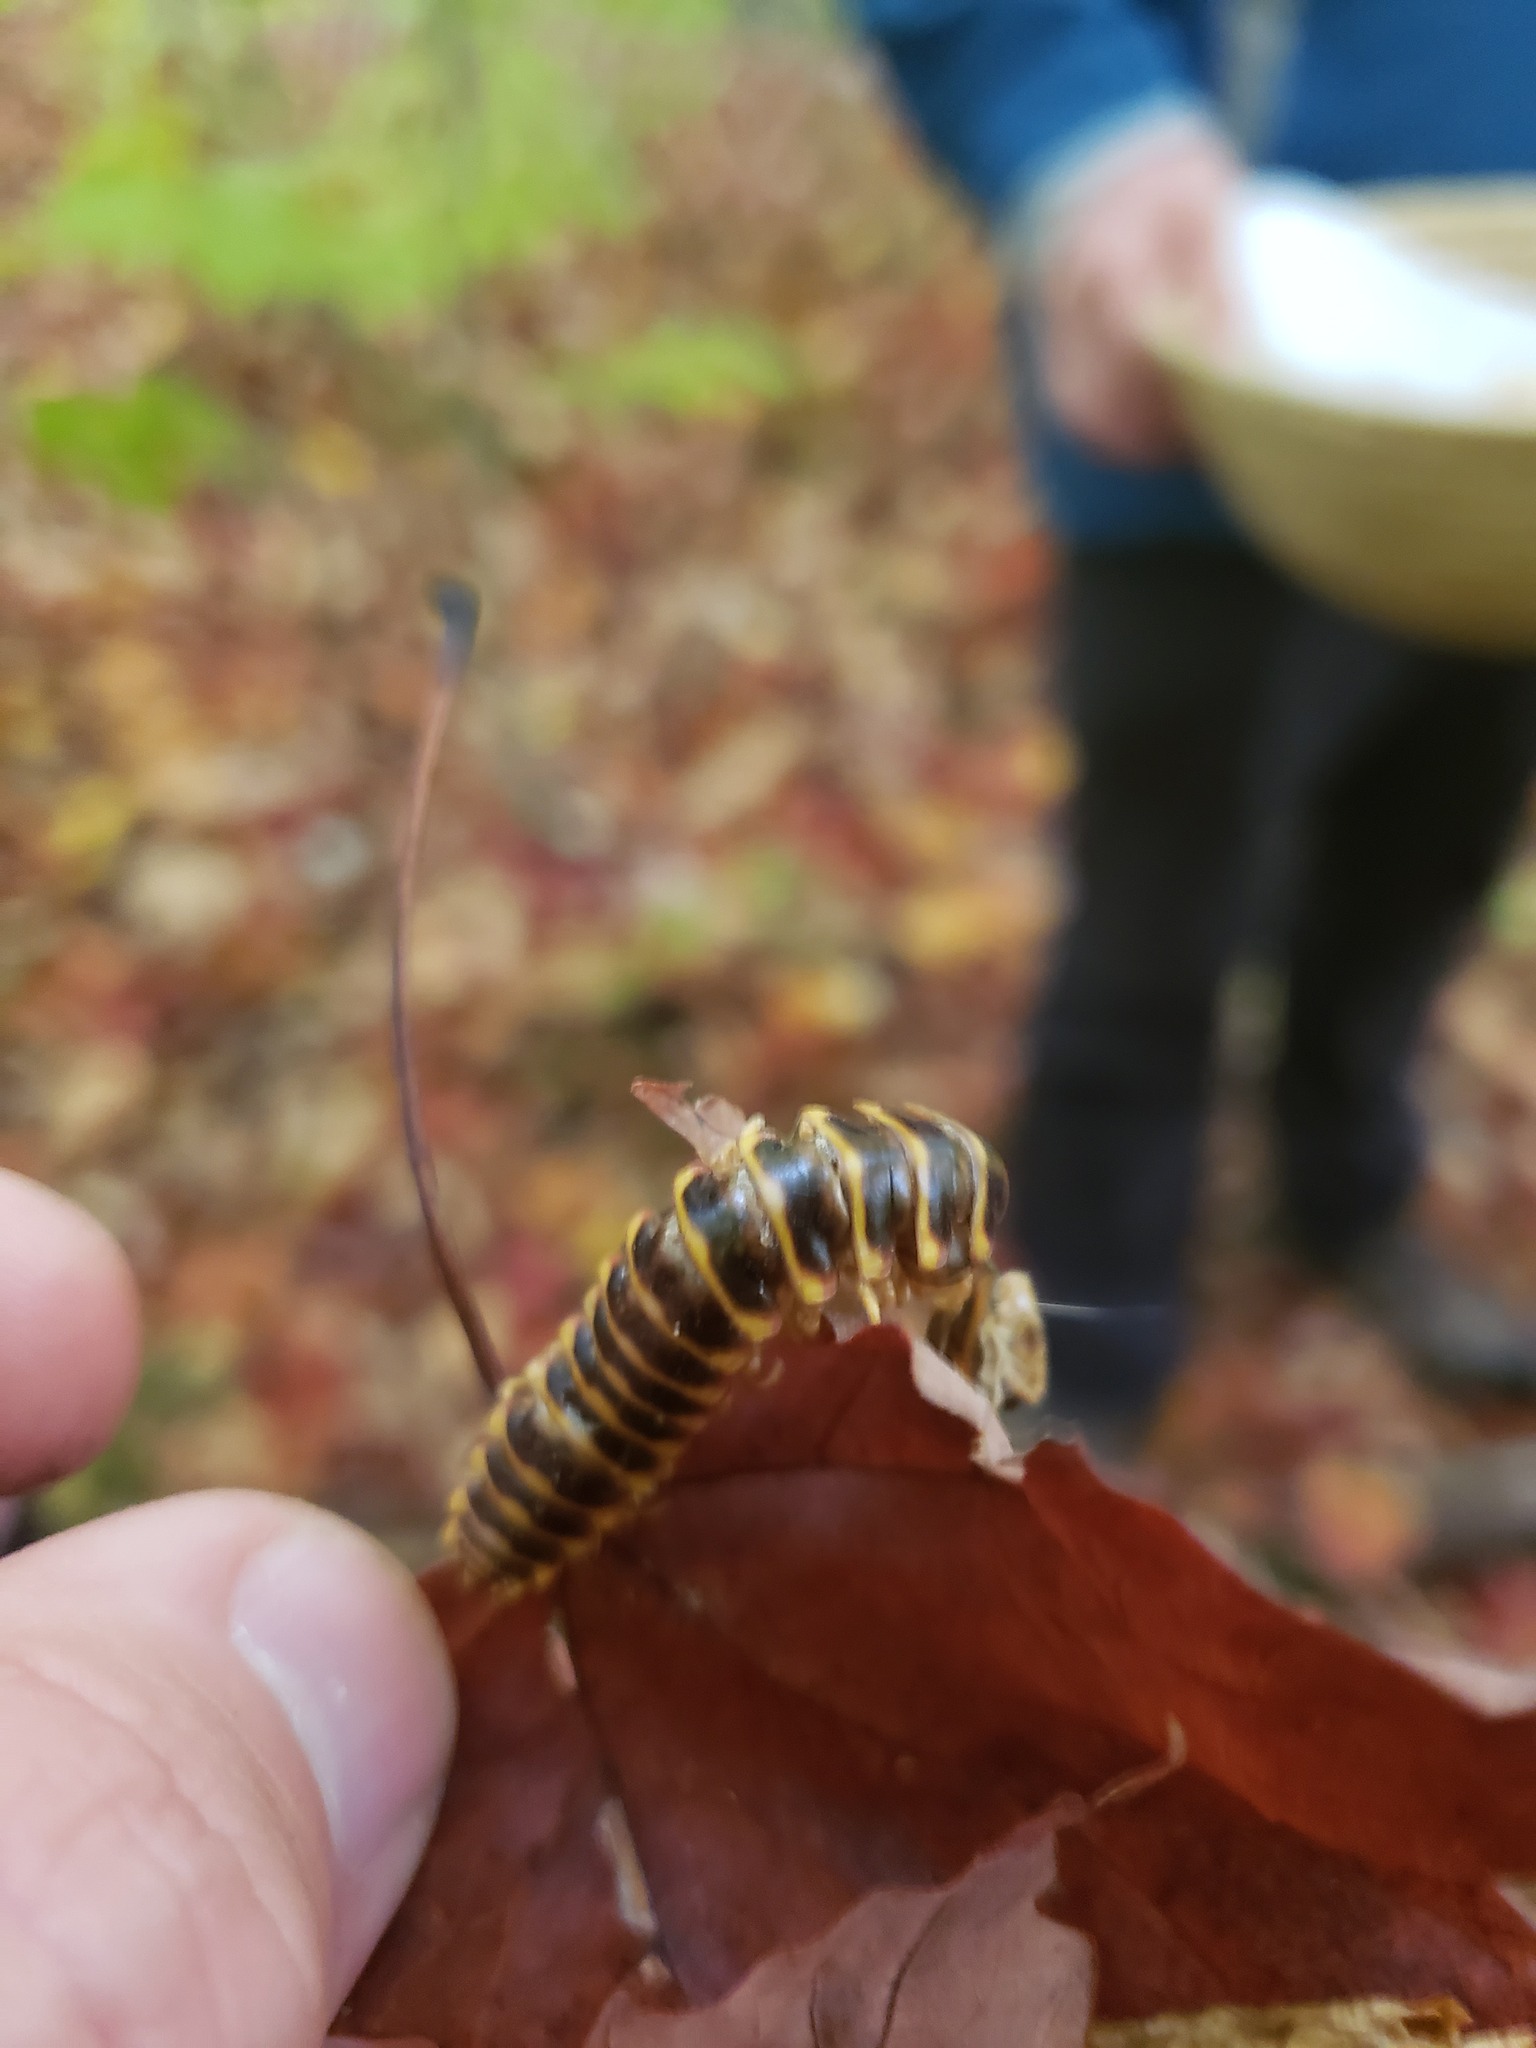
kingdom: Animalia
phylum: Arthropoda
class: Diplopoda
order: Polydesmida
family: Xystodesmidae
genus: Apheloria
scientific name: Apheloria virginiensis
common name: Black-and-gold flat millipede
